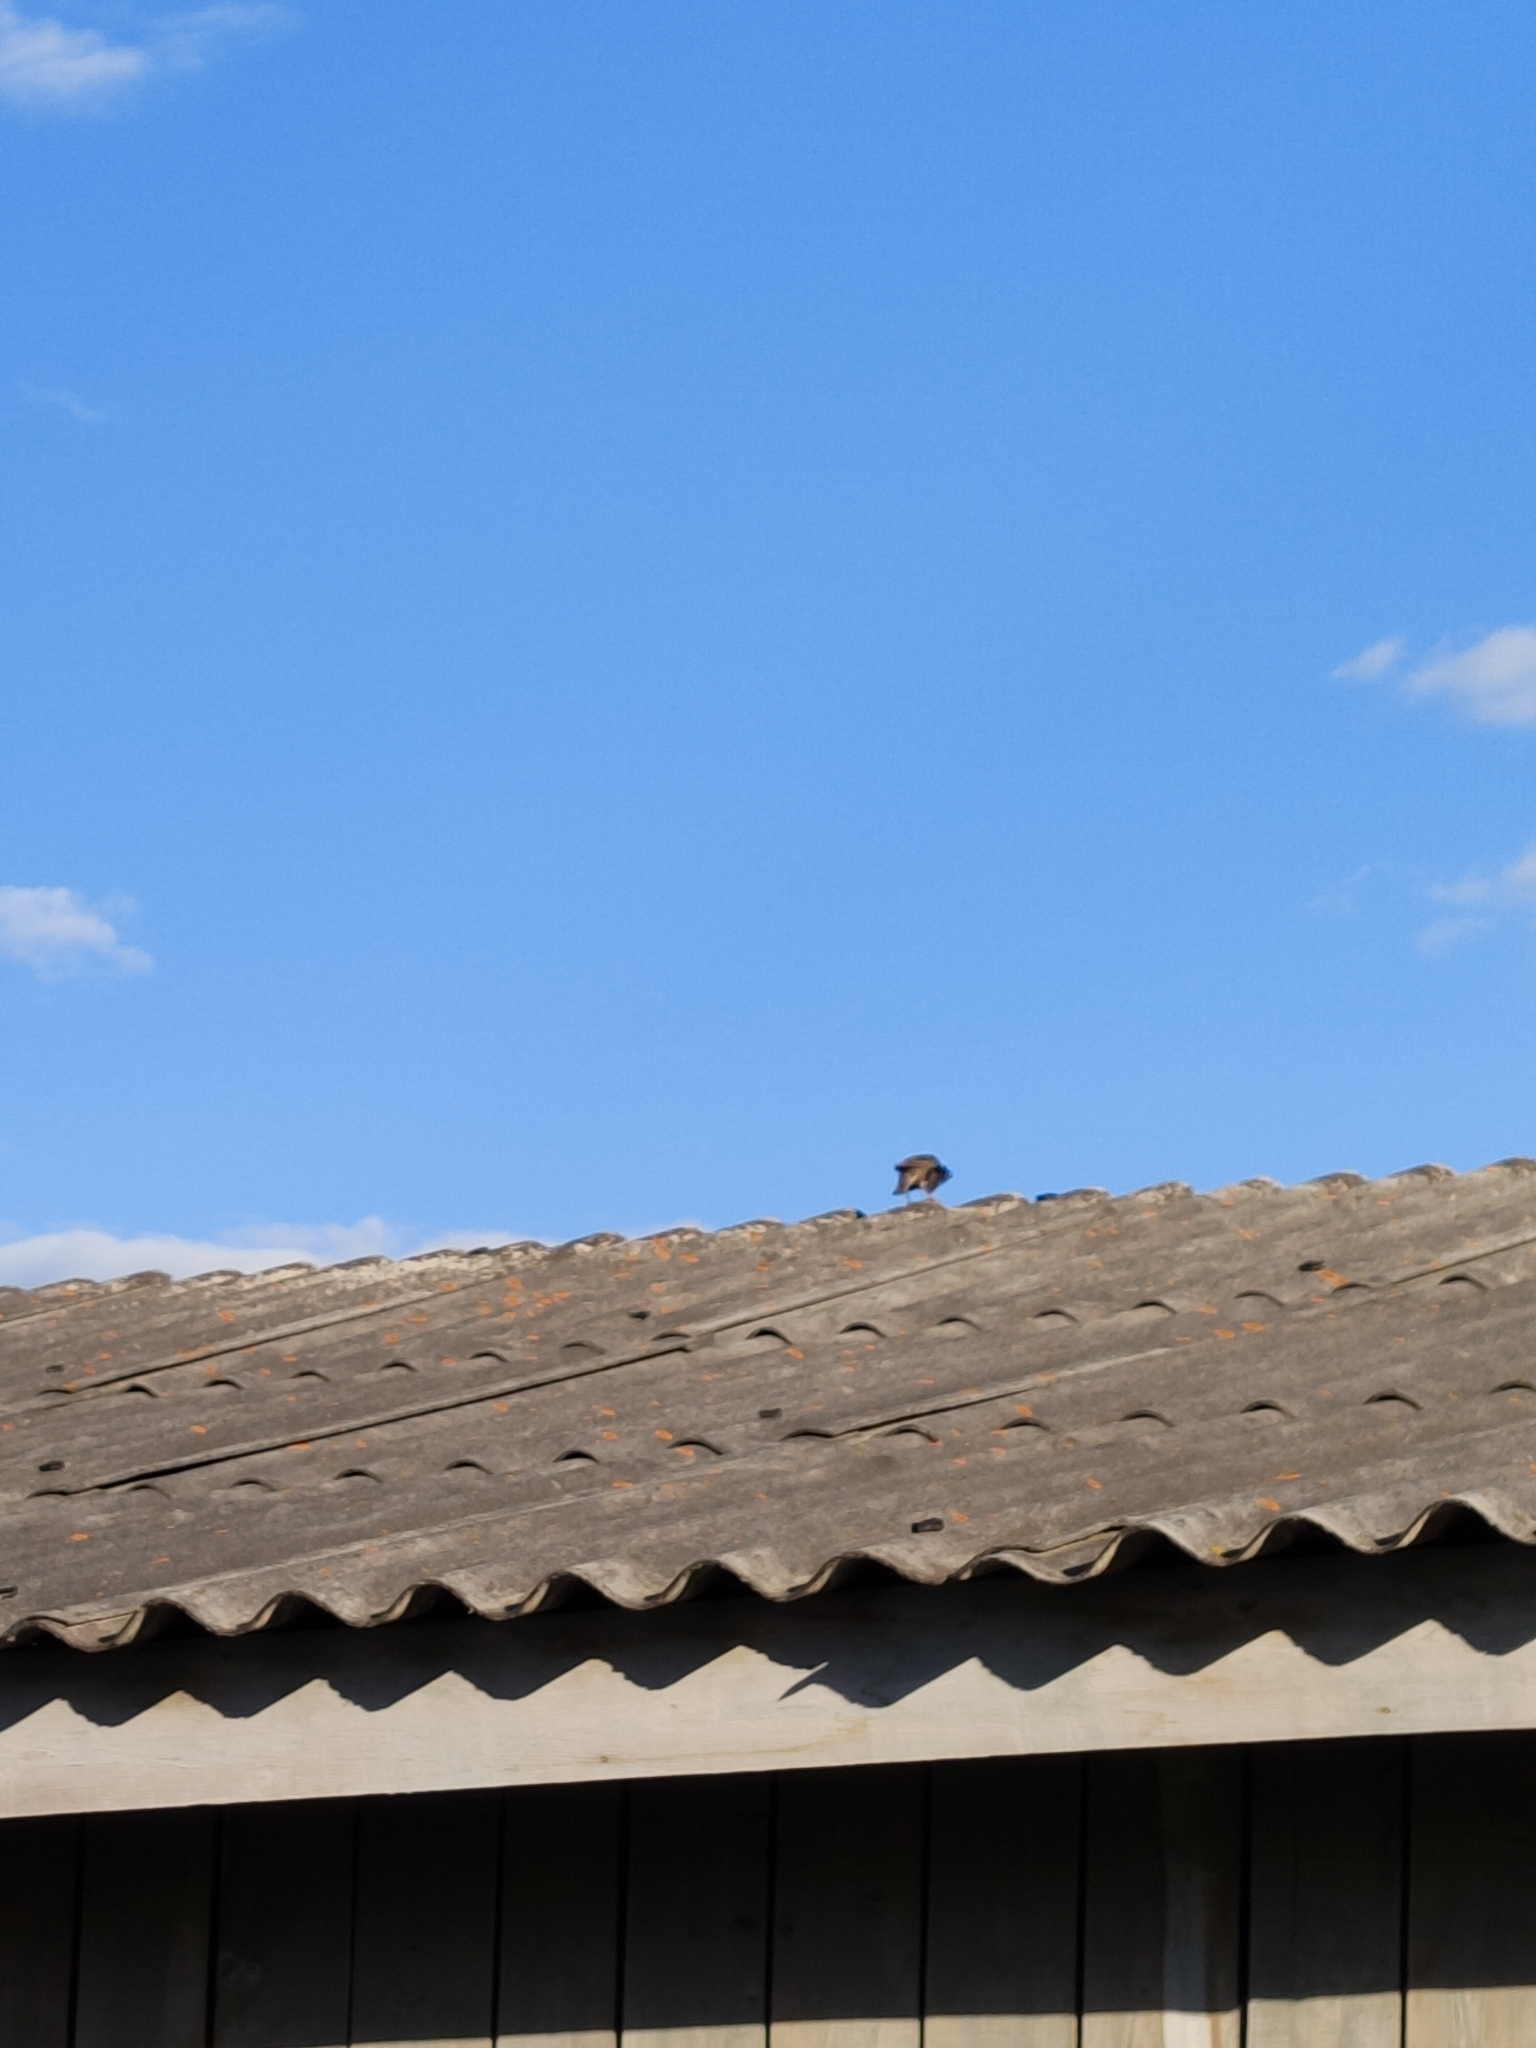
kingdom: Animalia
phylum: Chordata
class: Aves
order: Passeriformes
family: Sturnidae
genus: Sturnus
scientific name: Sturnus vulgaris
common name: Common starling
